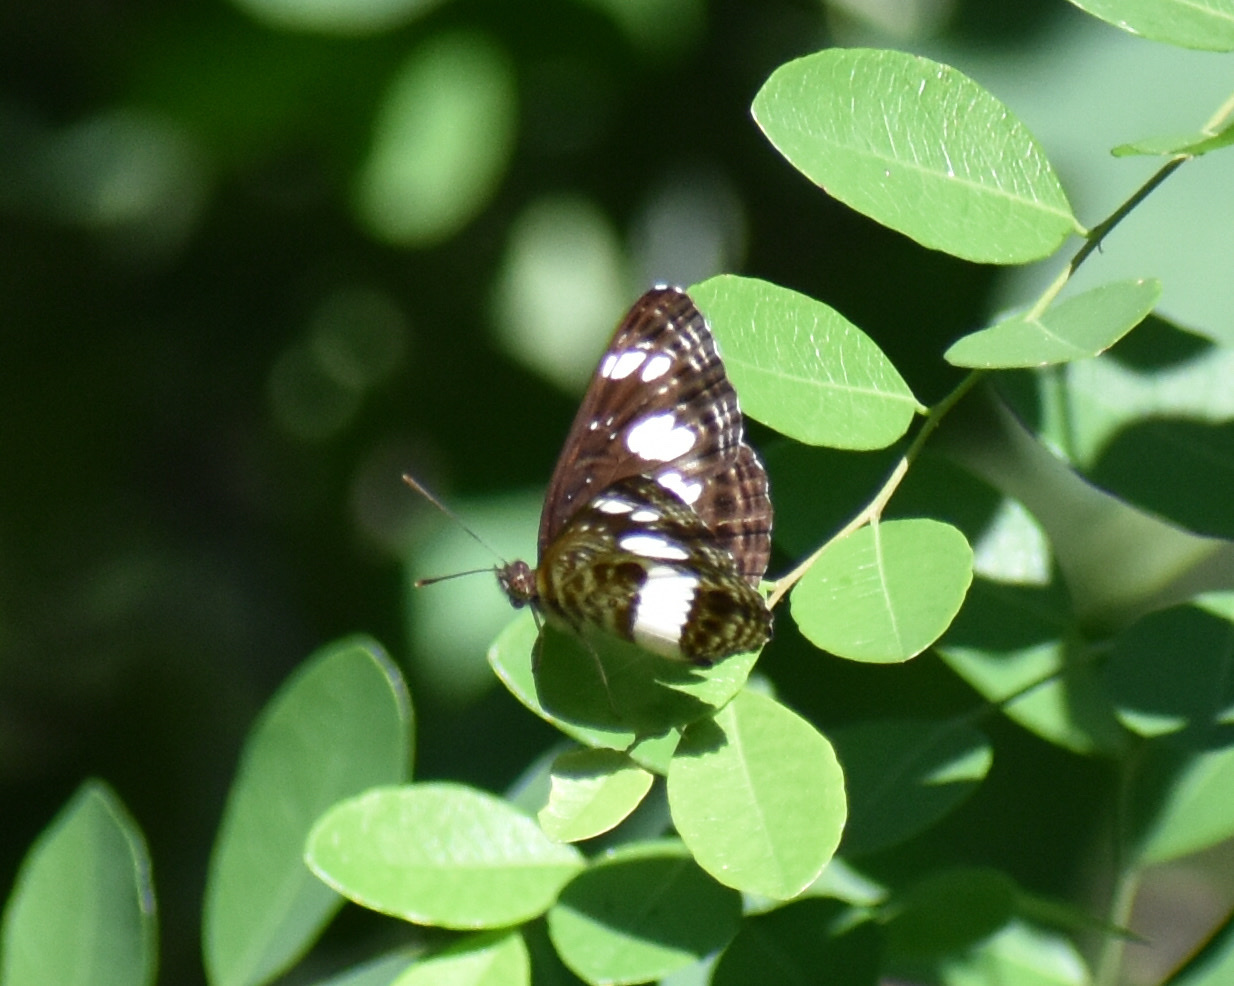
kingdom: Animalia
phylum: Arthropoda
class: Insecta
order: Lepidoptera
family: Nymphalidae
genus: Neptis
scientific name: Neptis saclava
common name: Small spotted sailor
